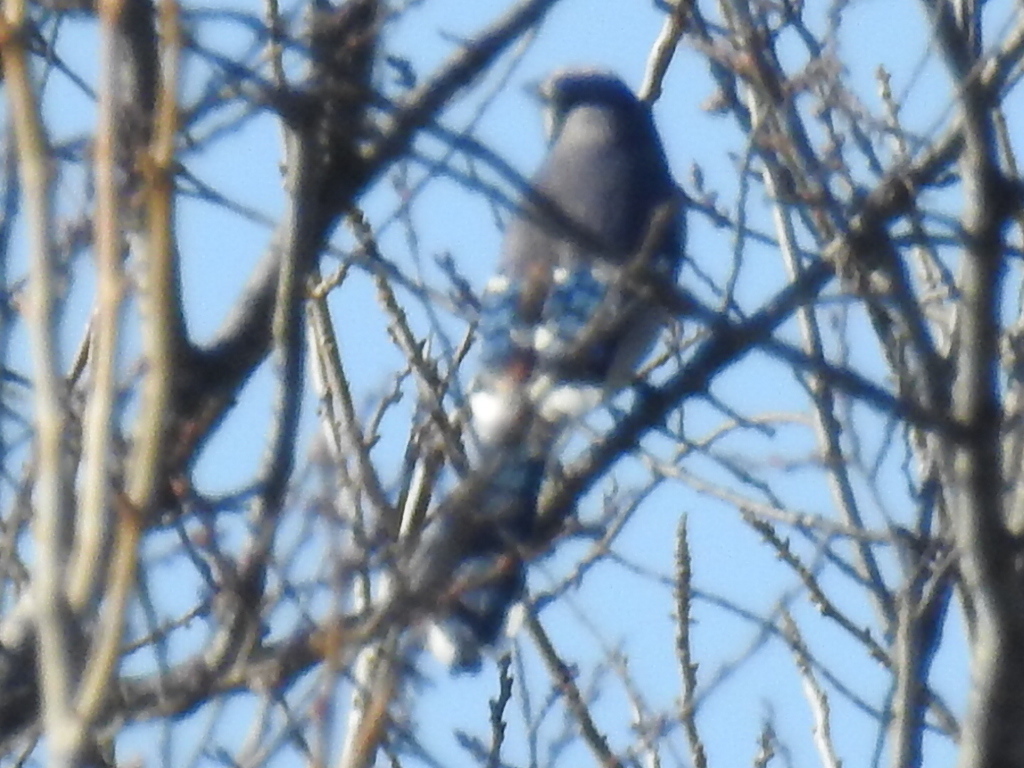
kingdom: Animalia
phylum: Chordata
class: Aves
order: Passeriformes
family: Corvidae
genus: Cyanocitta
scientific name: Cyanocitta cristata
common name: Blue jay
